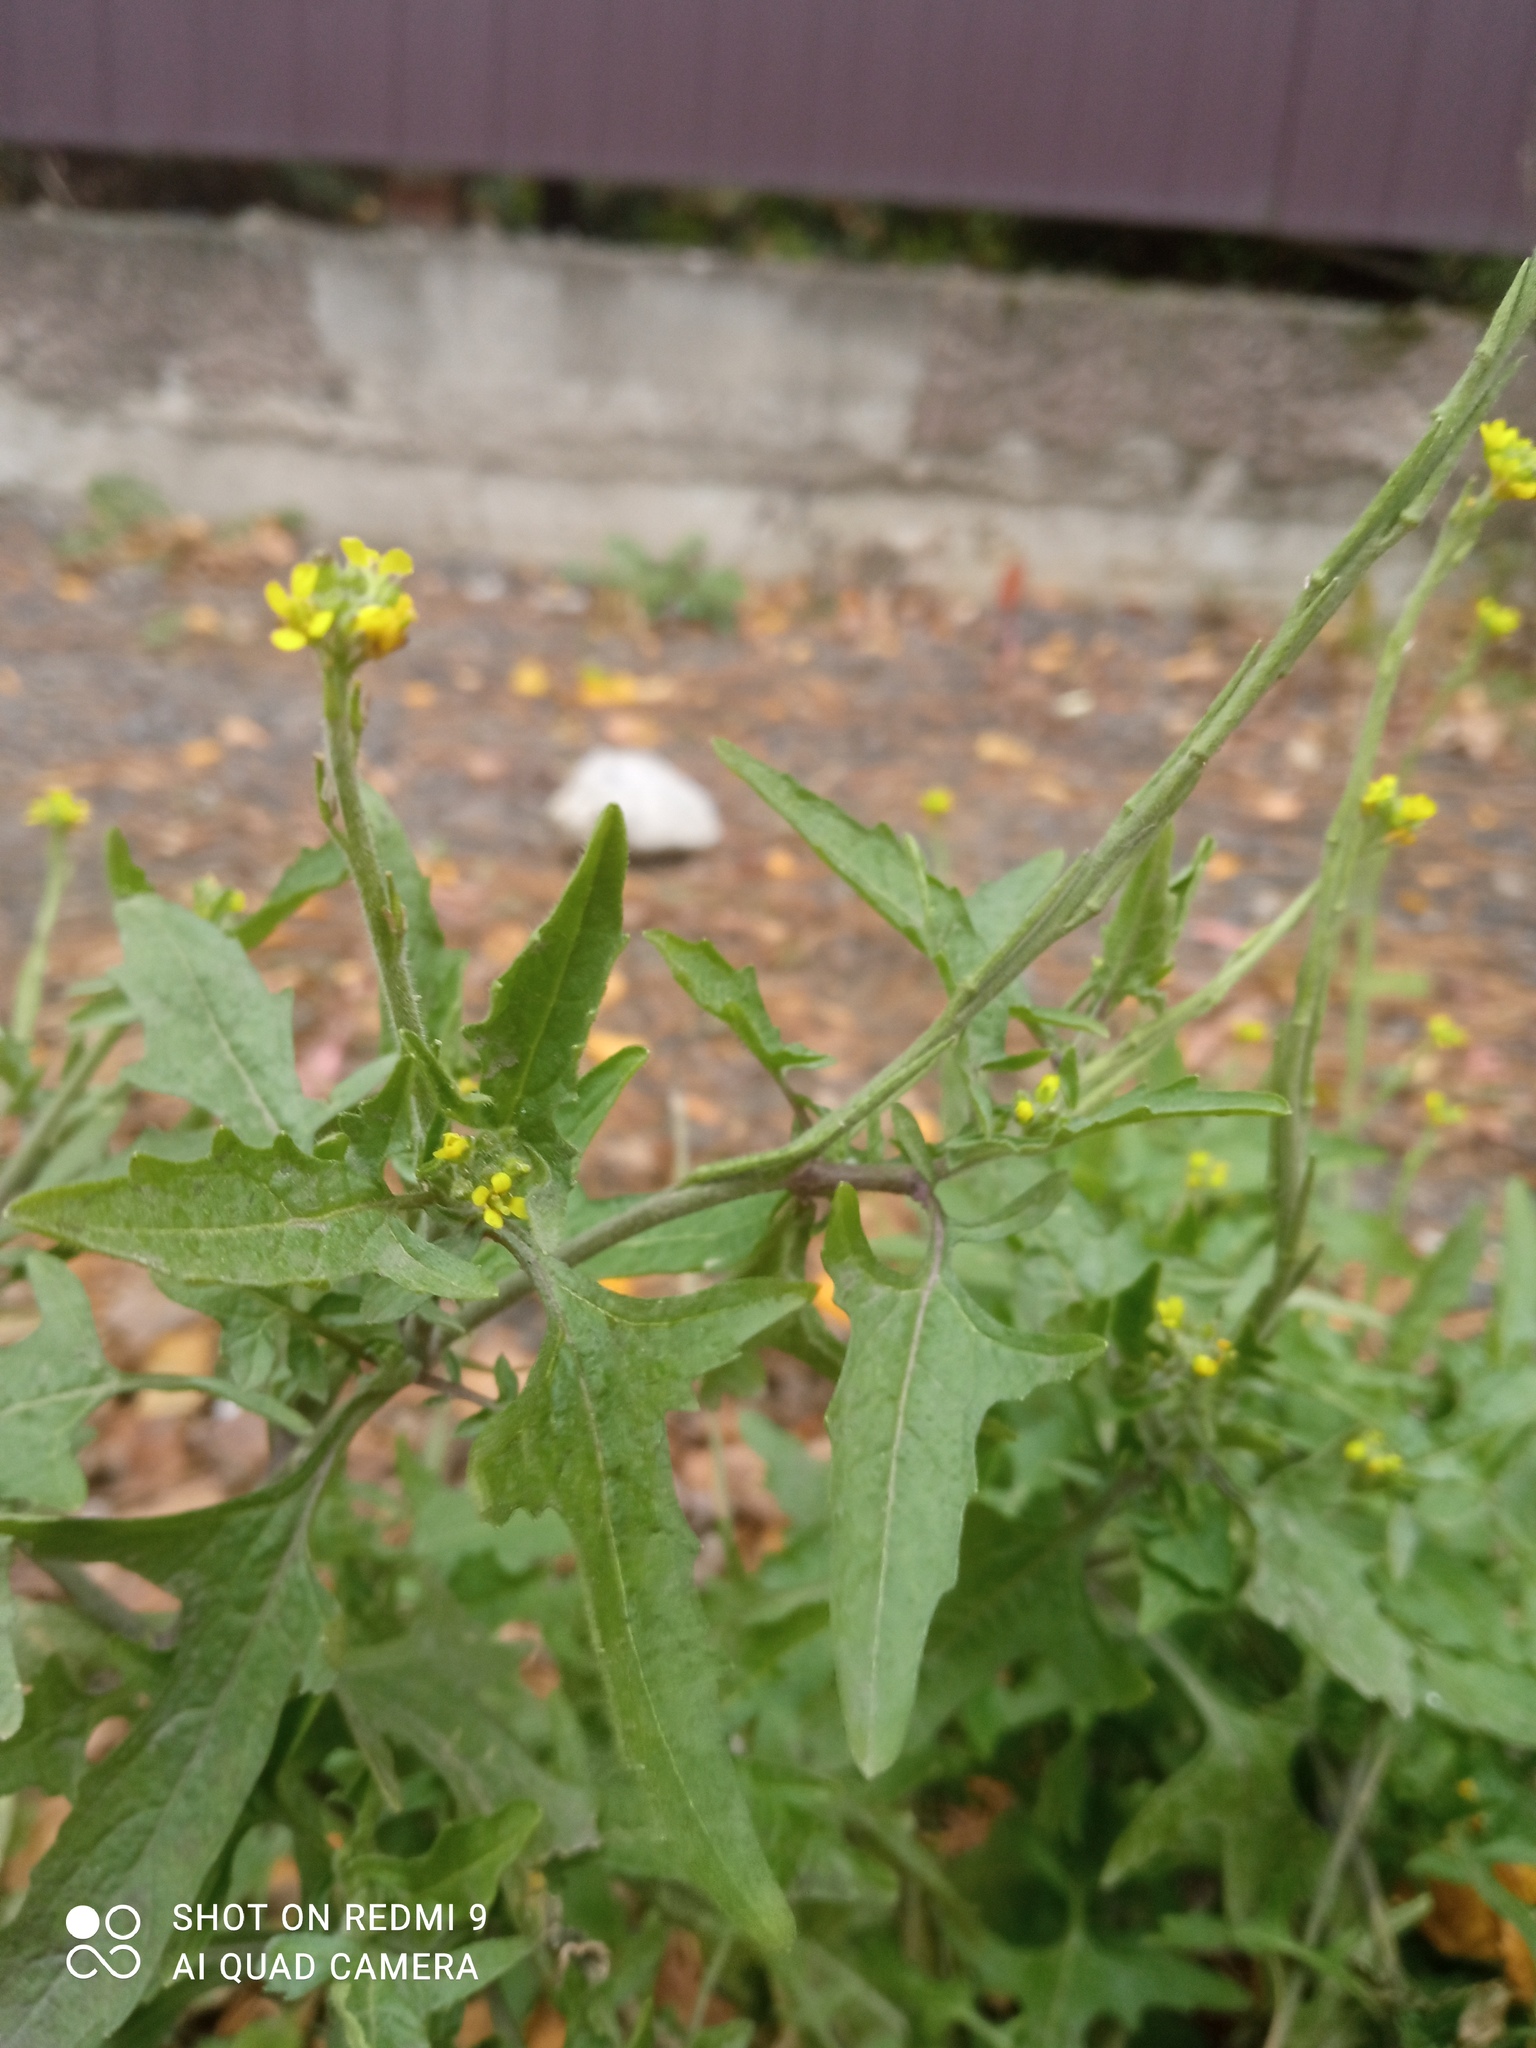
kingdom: Plantae
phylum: Tracheophyta
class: Magnoliopsida
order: Brassicales
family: Brassicaceae
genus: Sisymbrium
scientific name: Sisymbrium officinale
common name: Hedge mustard
